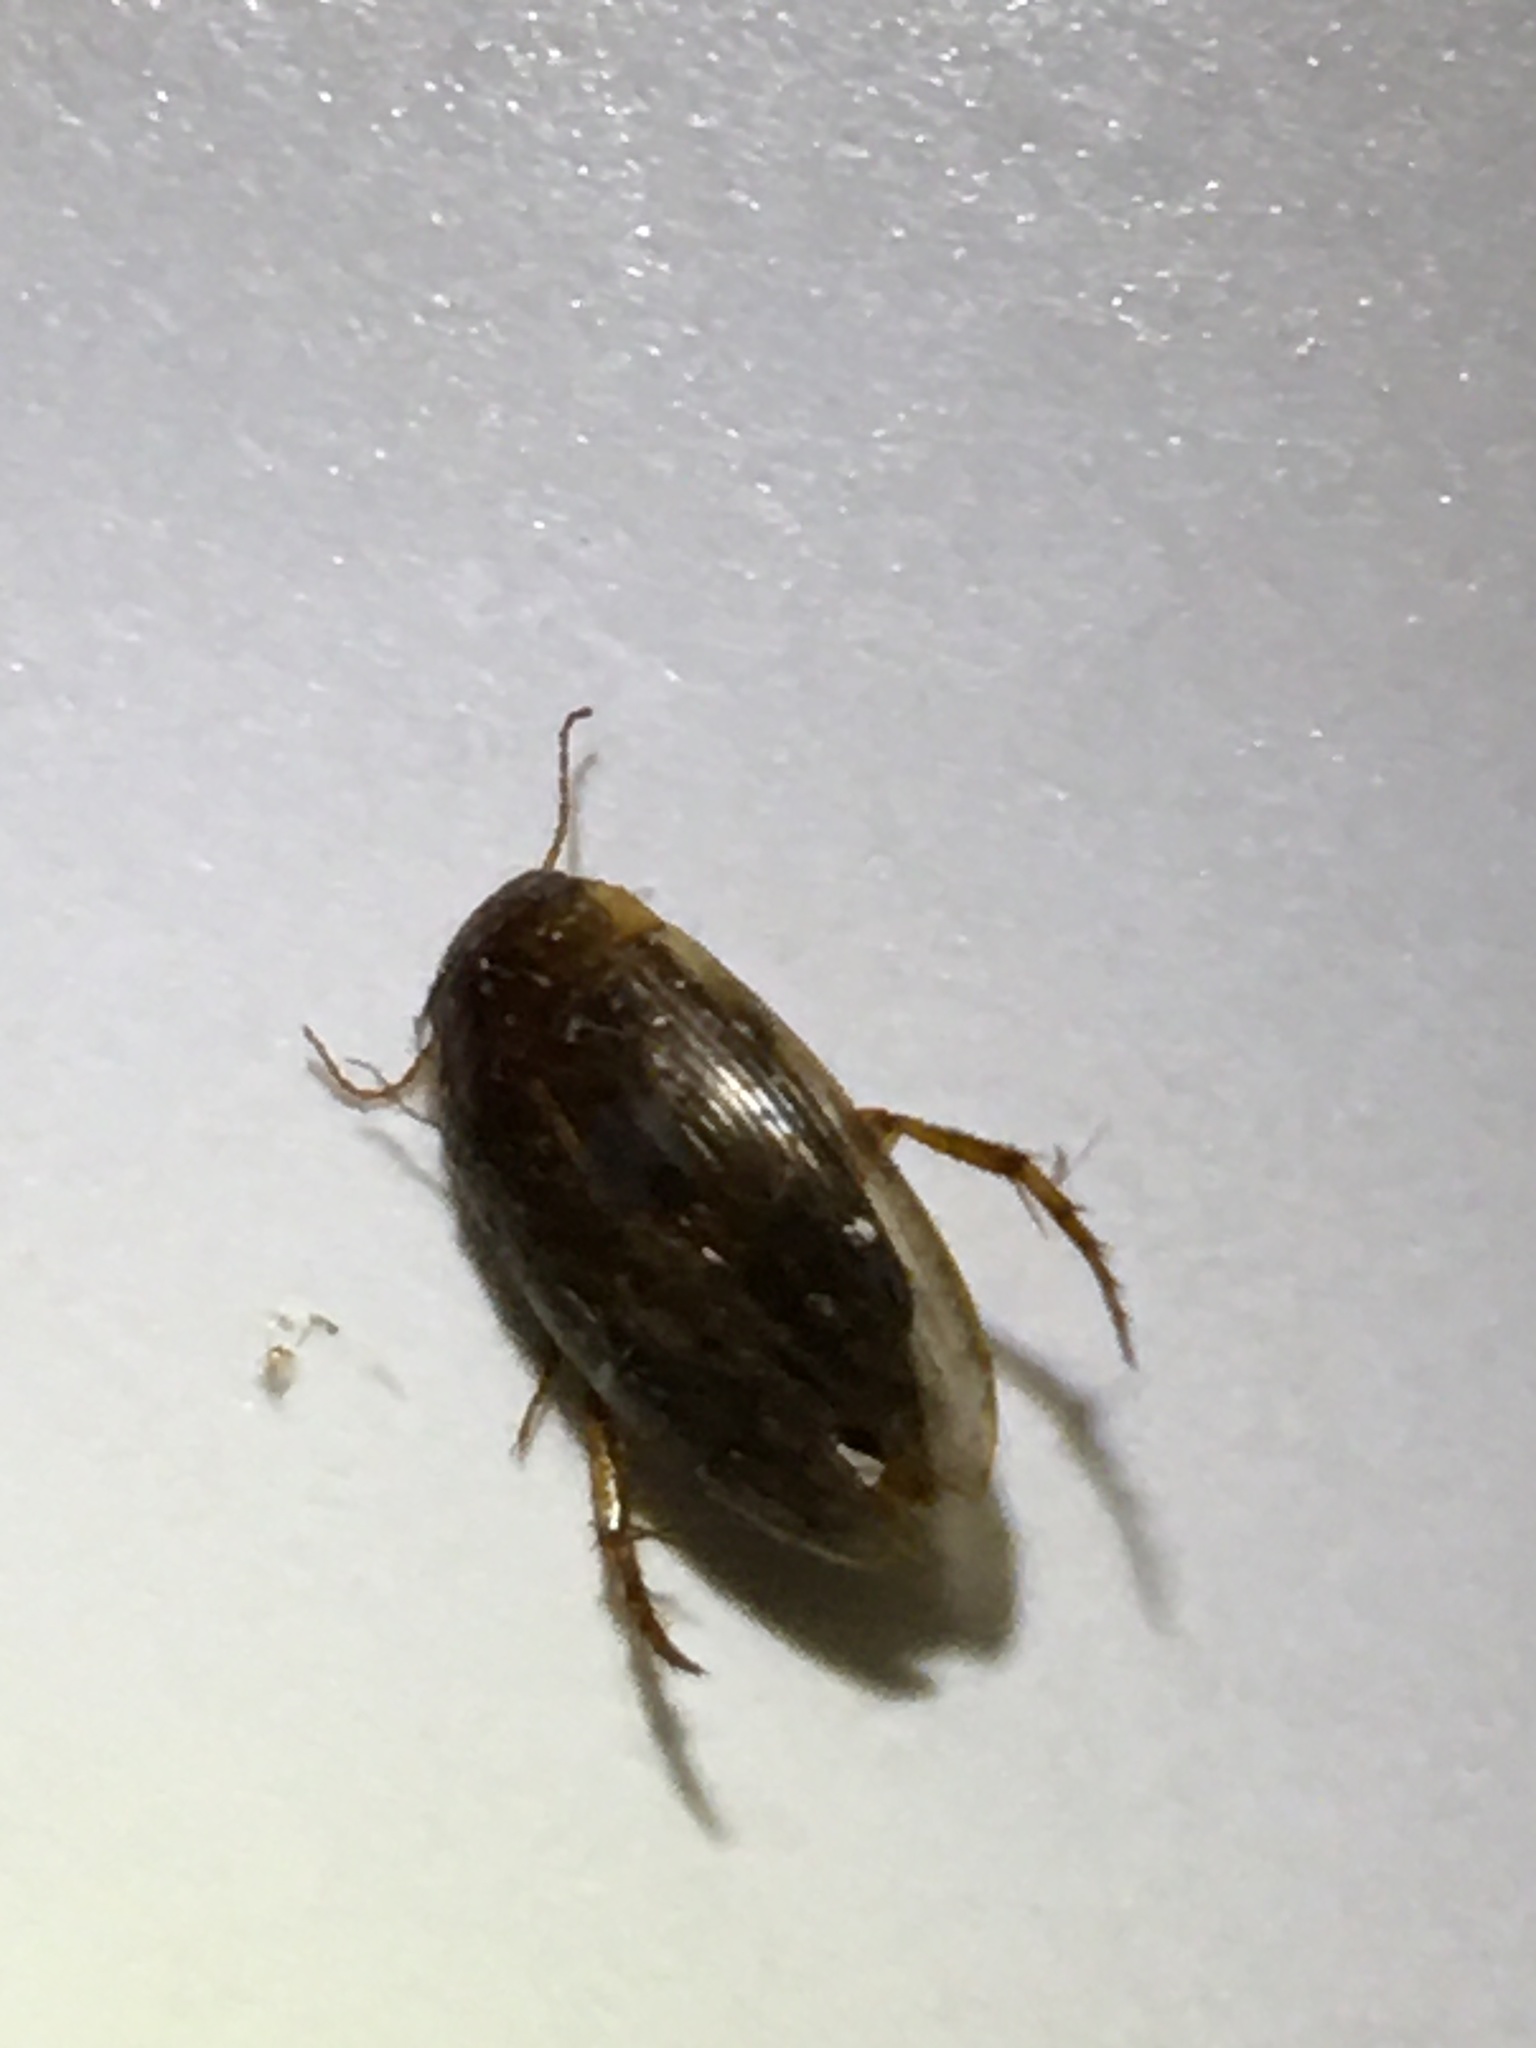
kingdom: Animalia
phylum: Arthropoda
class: Insecta
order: Coleoptera
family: Dytiscidae
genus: Copelatus
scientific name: Copelatus
